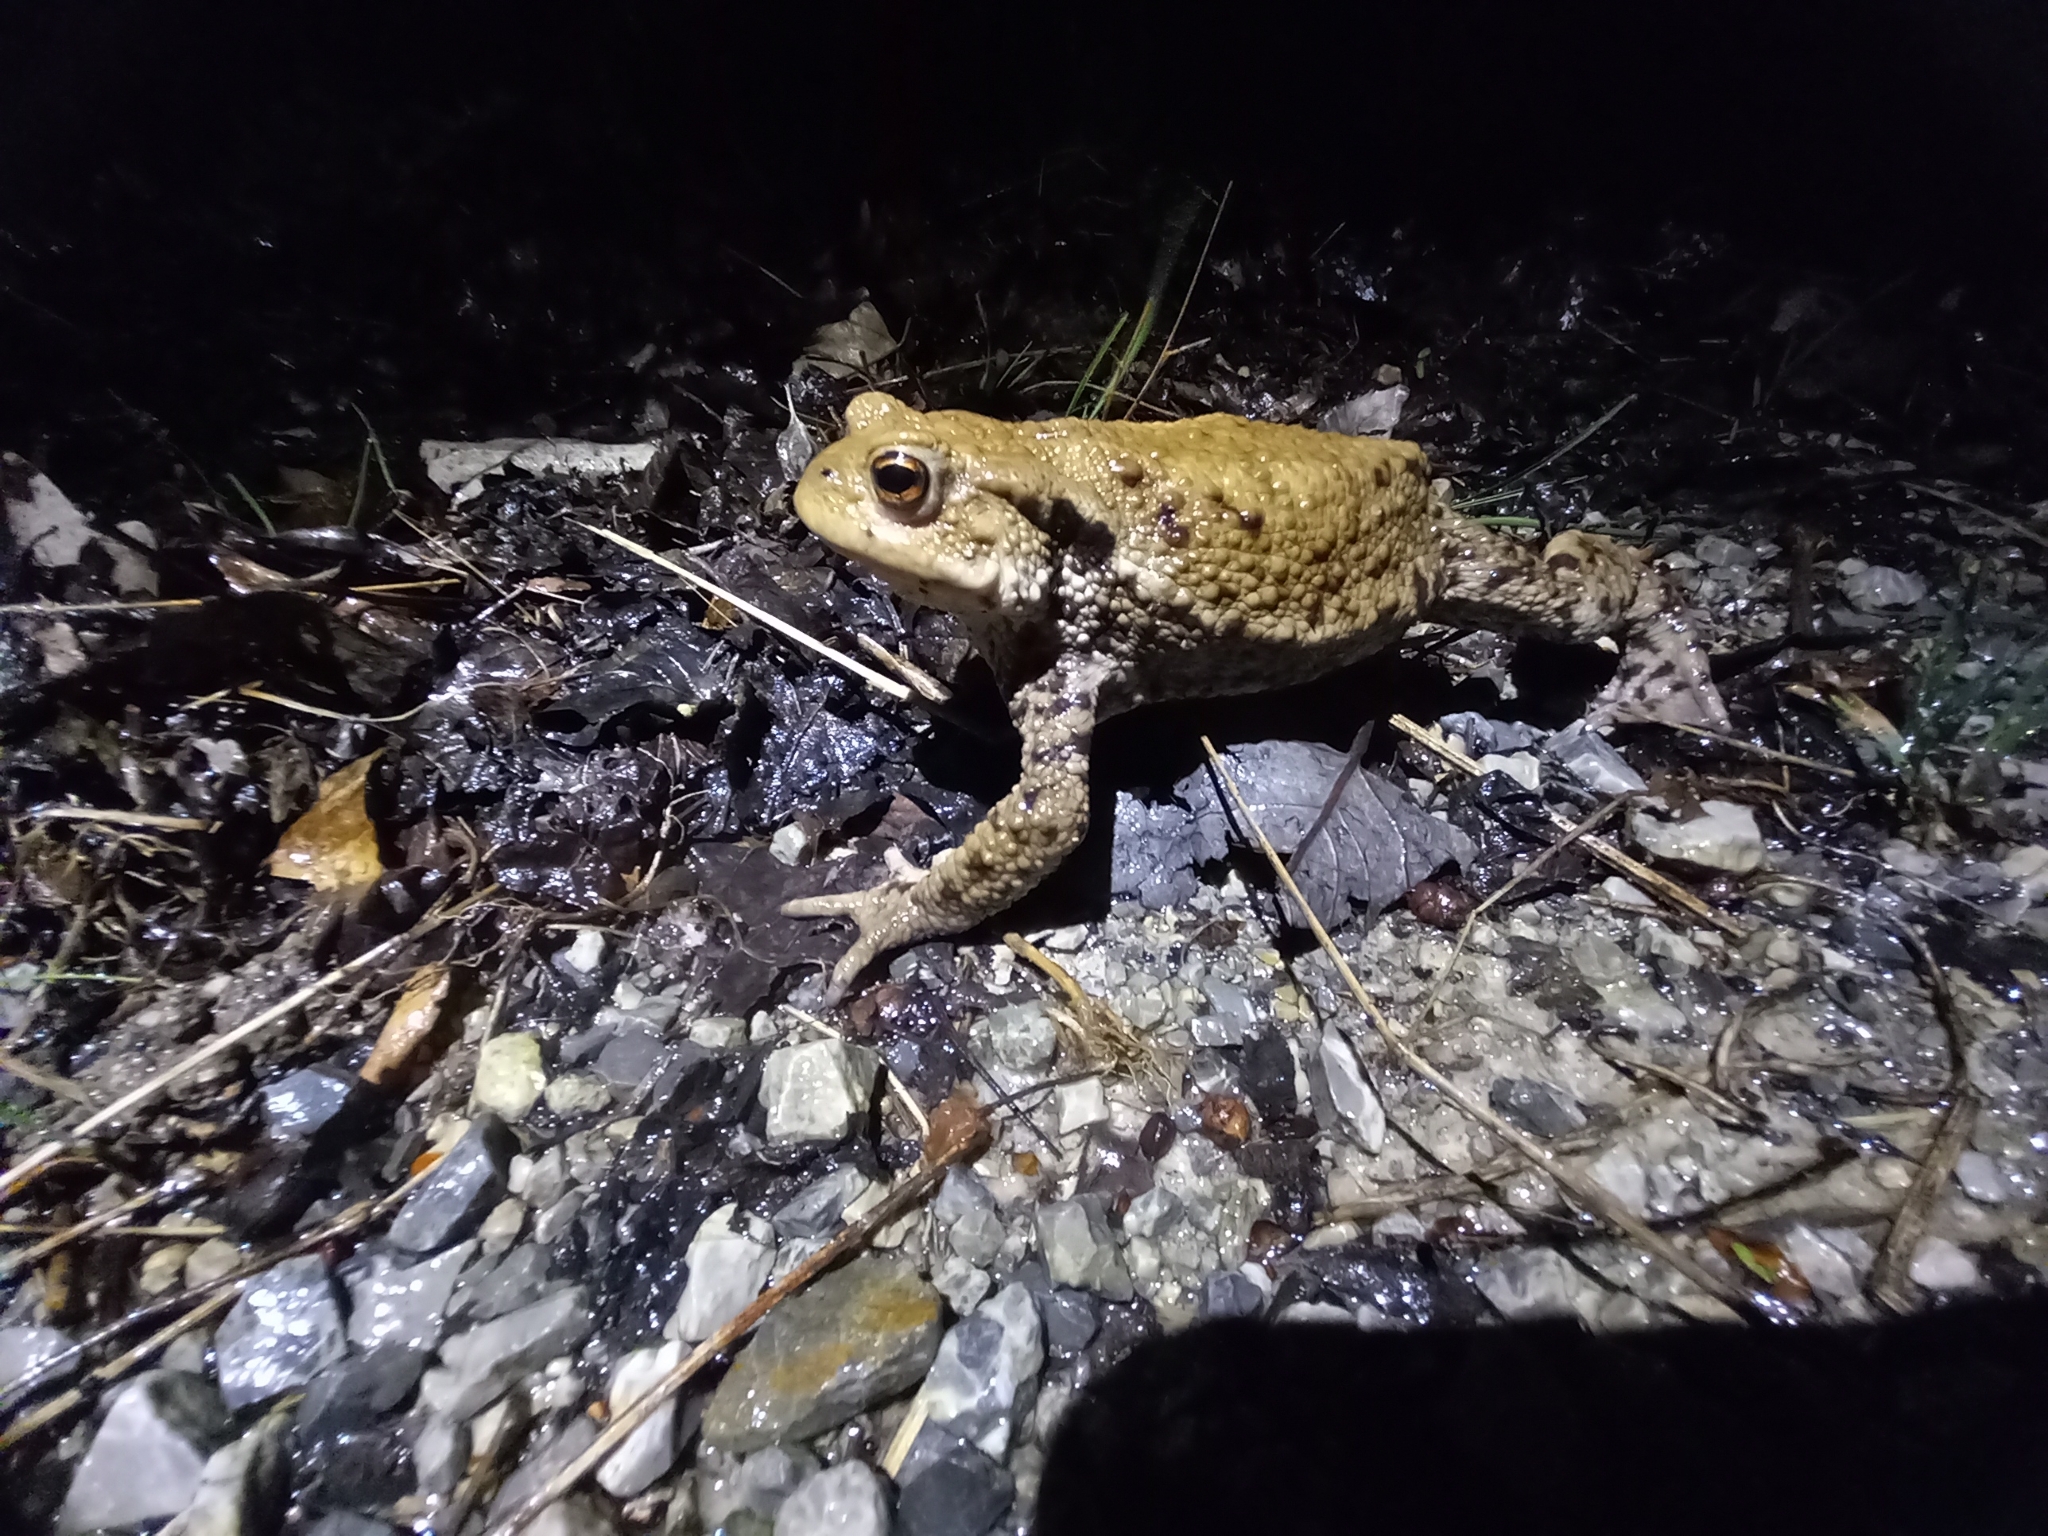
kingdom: Animalia
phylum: Chordata
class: Amphibia
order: Anura
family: Bufonidae
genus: Bufo
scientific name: Bufo bufo
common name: Common toad
